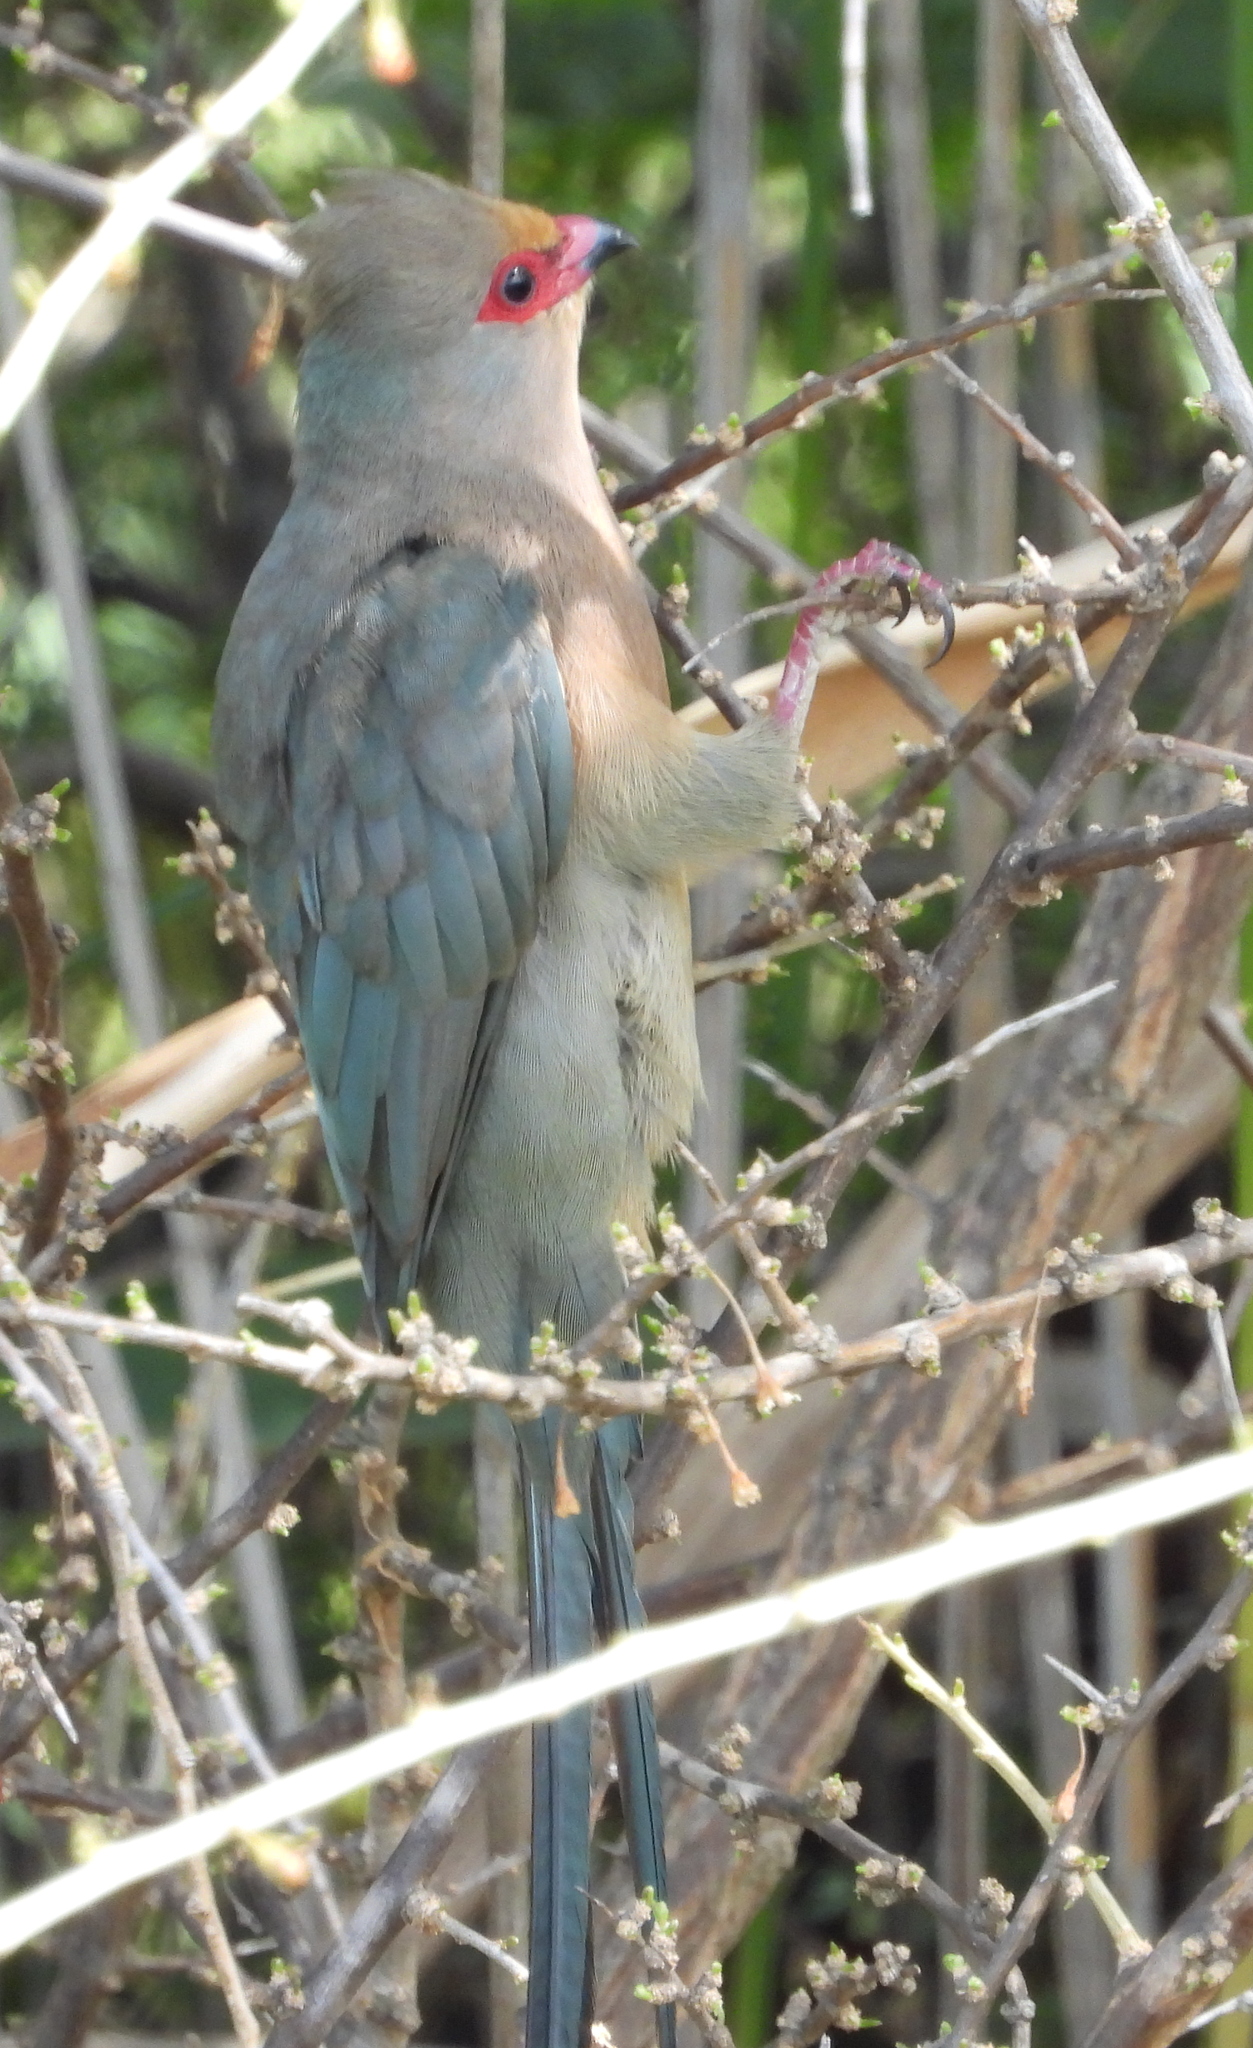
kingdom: Animalia
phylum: Chordata
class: Aves
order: Coliiformes
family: Coliidae
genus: Urocolius
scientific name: Urocolius indicus
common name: Red-faced mousebird
